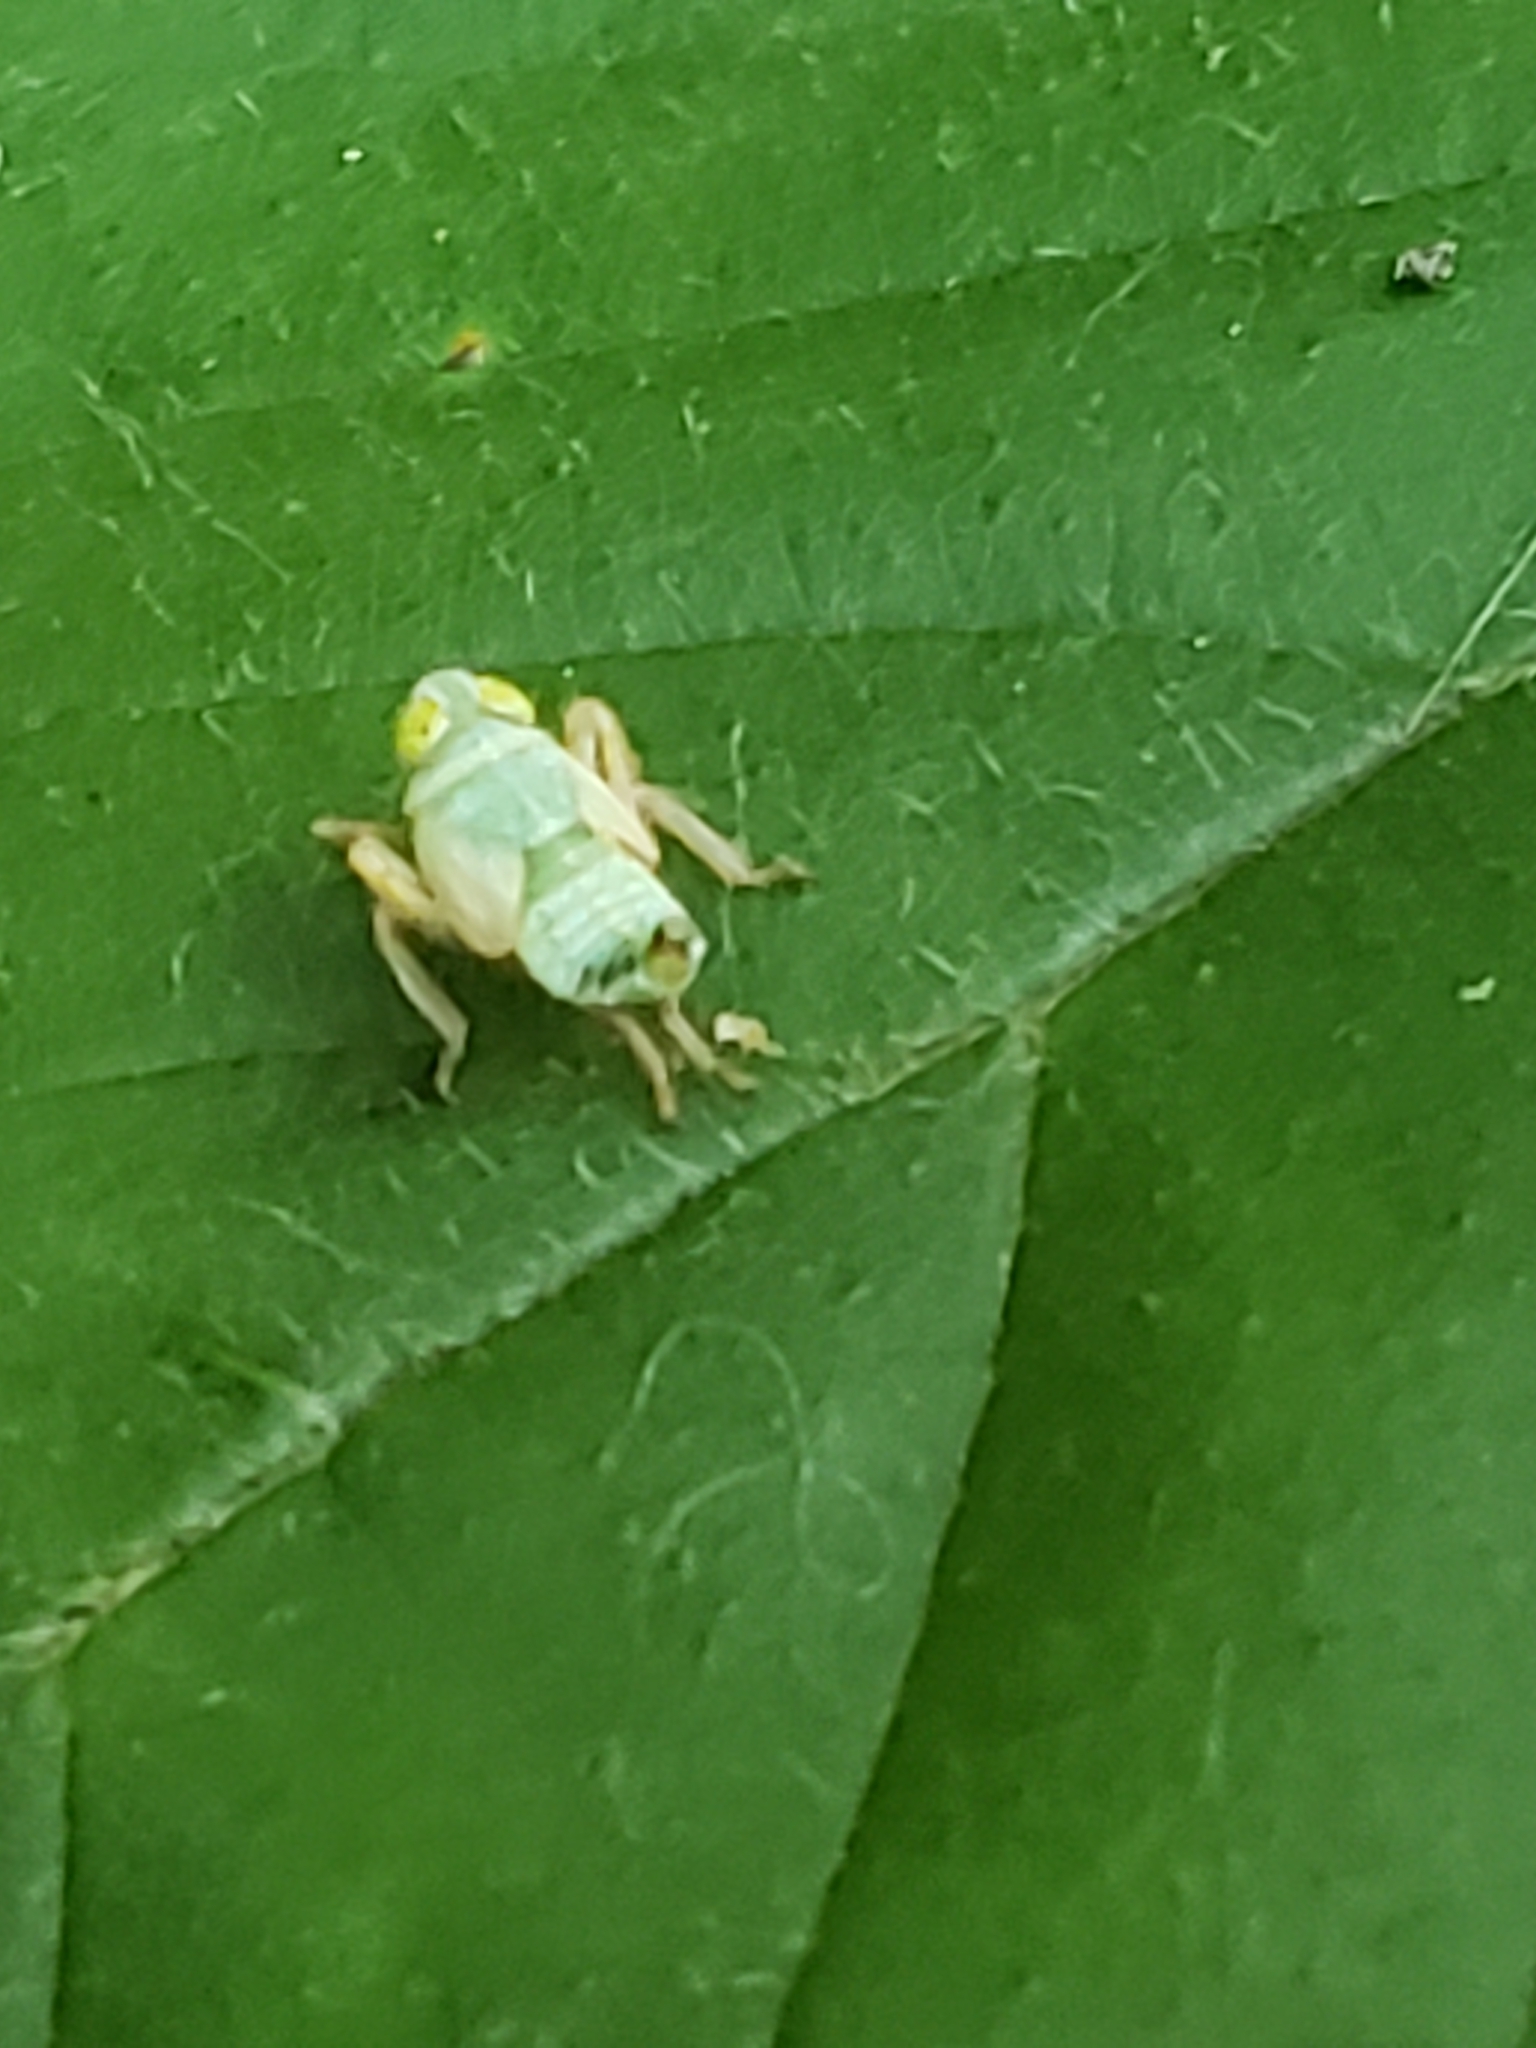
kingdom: Animalia
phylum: Arthropoda
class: Insecta
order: Hemiptera
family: Cicadellidae
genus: Jikradia
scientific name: Jikradia olitoria
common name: Coppery leafhopper
